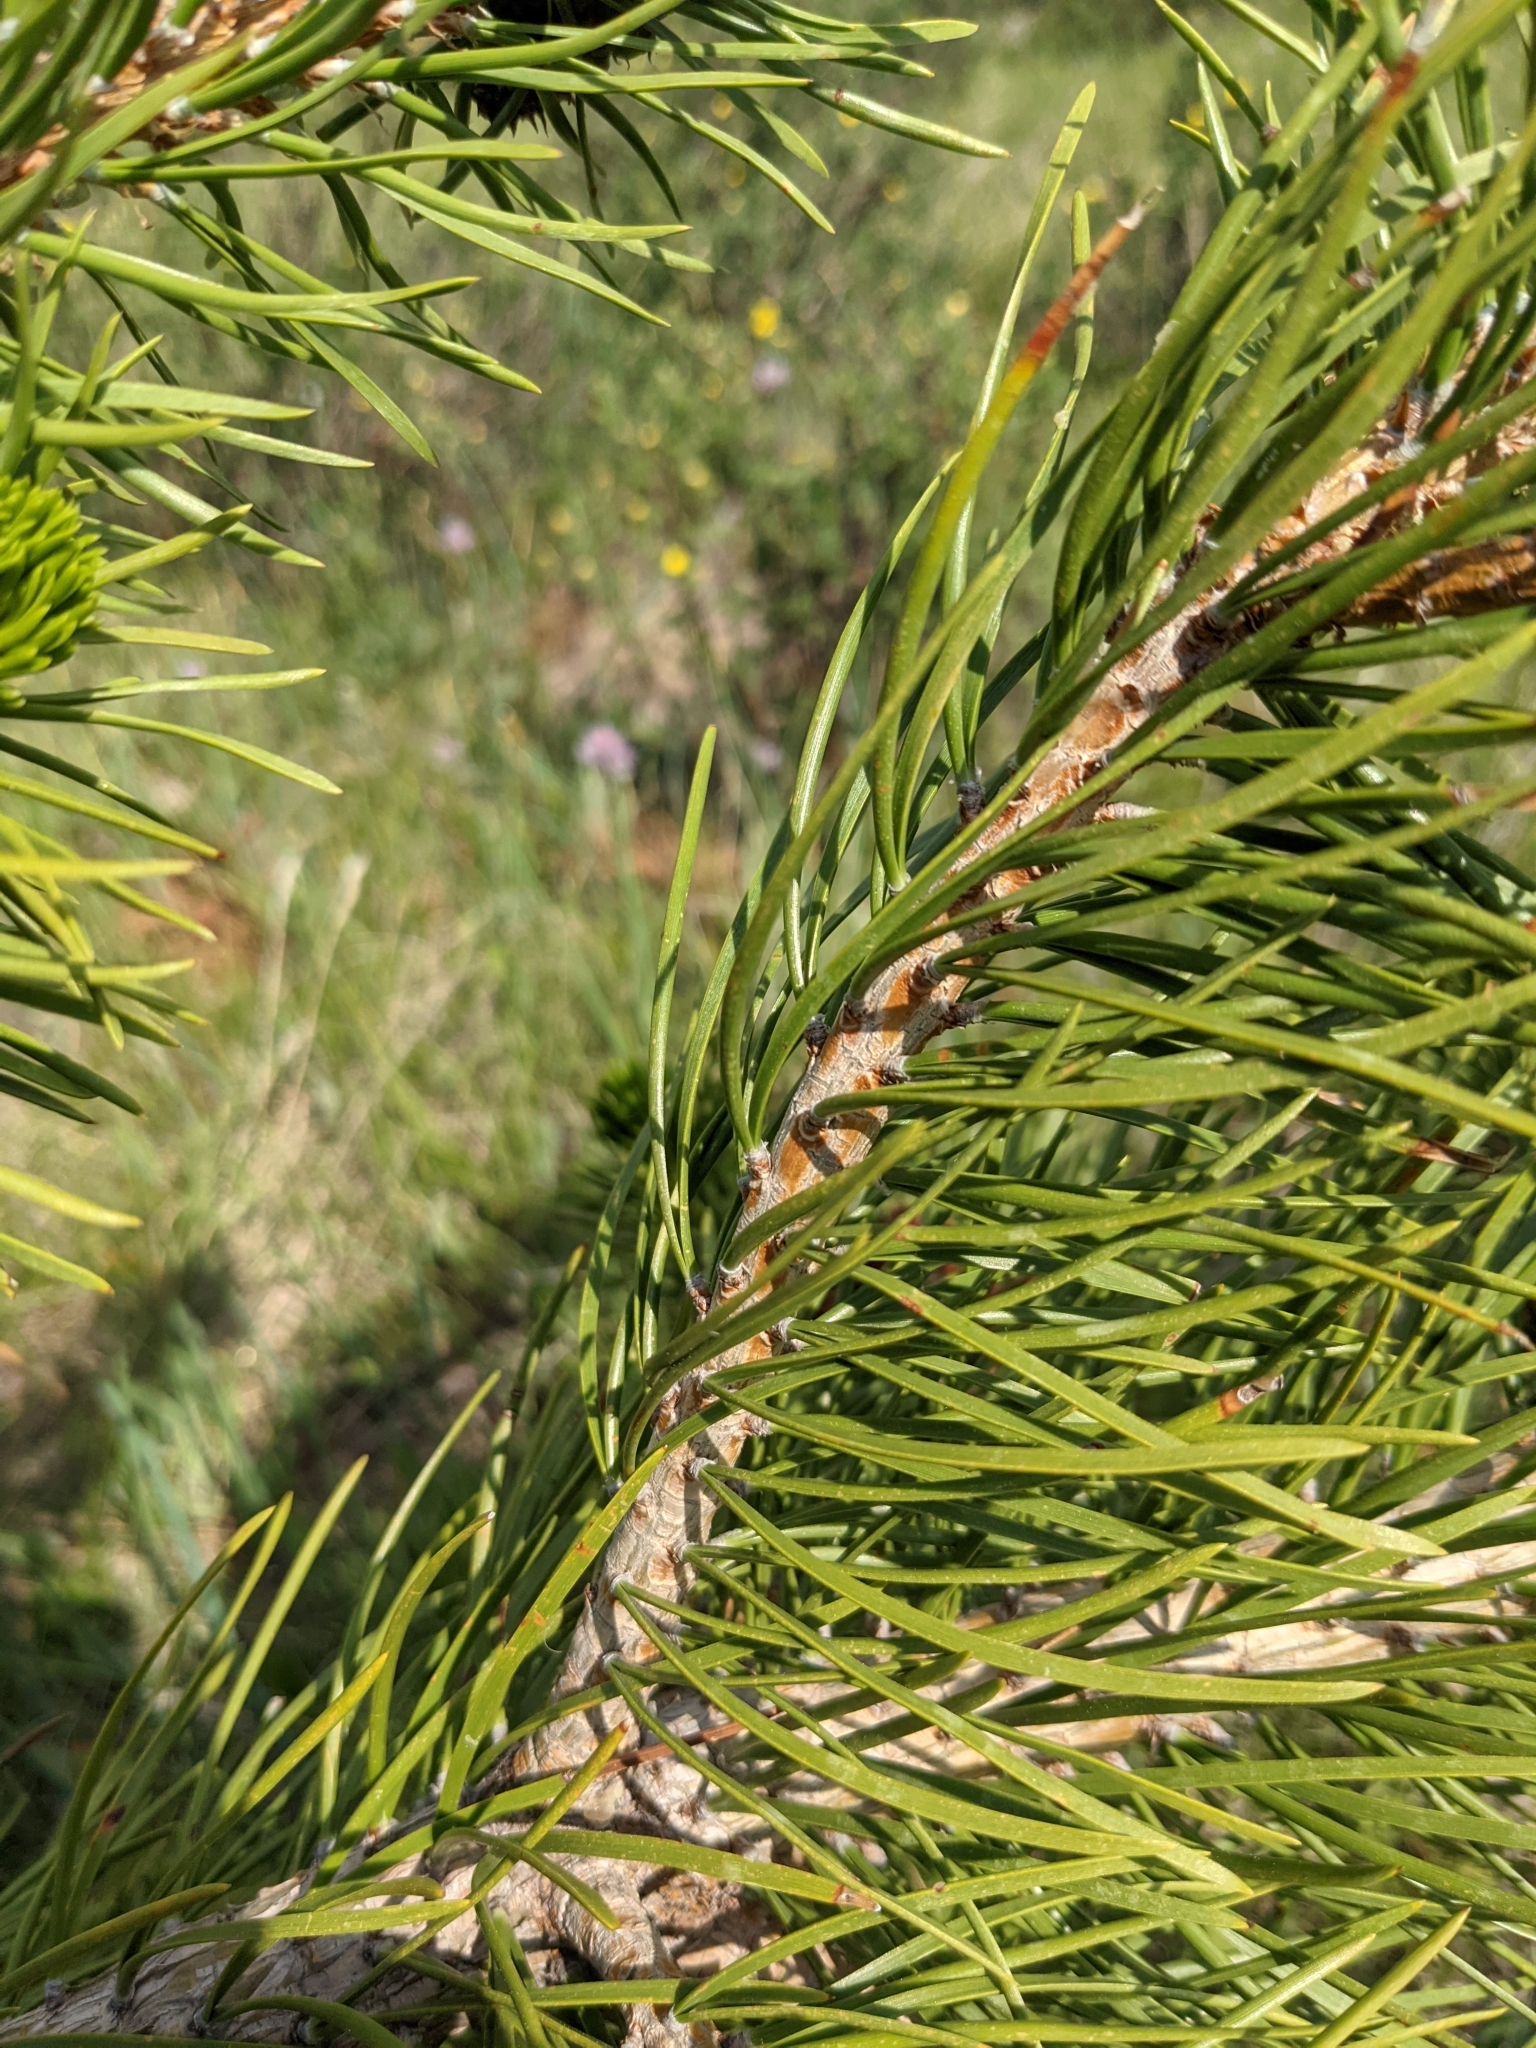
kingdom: Plantae
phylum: Tracheophyta
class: Pinopsida
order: Pinales
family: Pinaceae
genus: Pinus
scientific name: Pinus contorta
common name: Lodgepole pine
